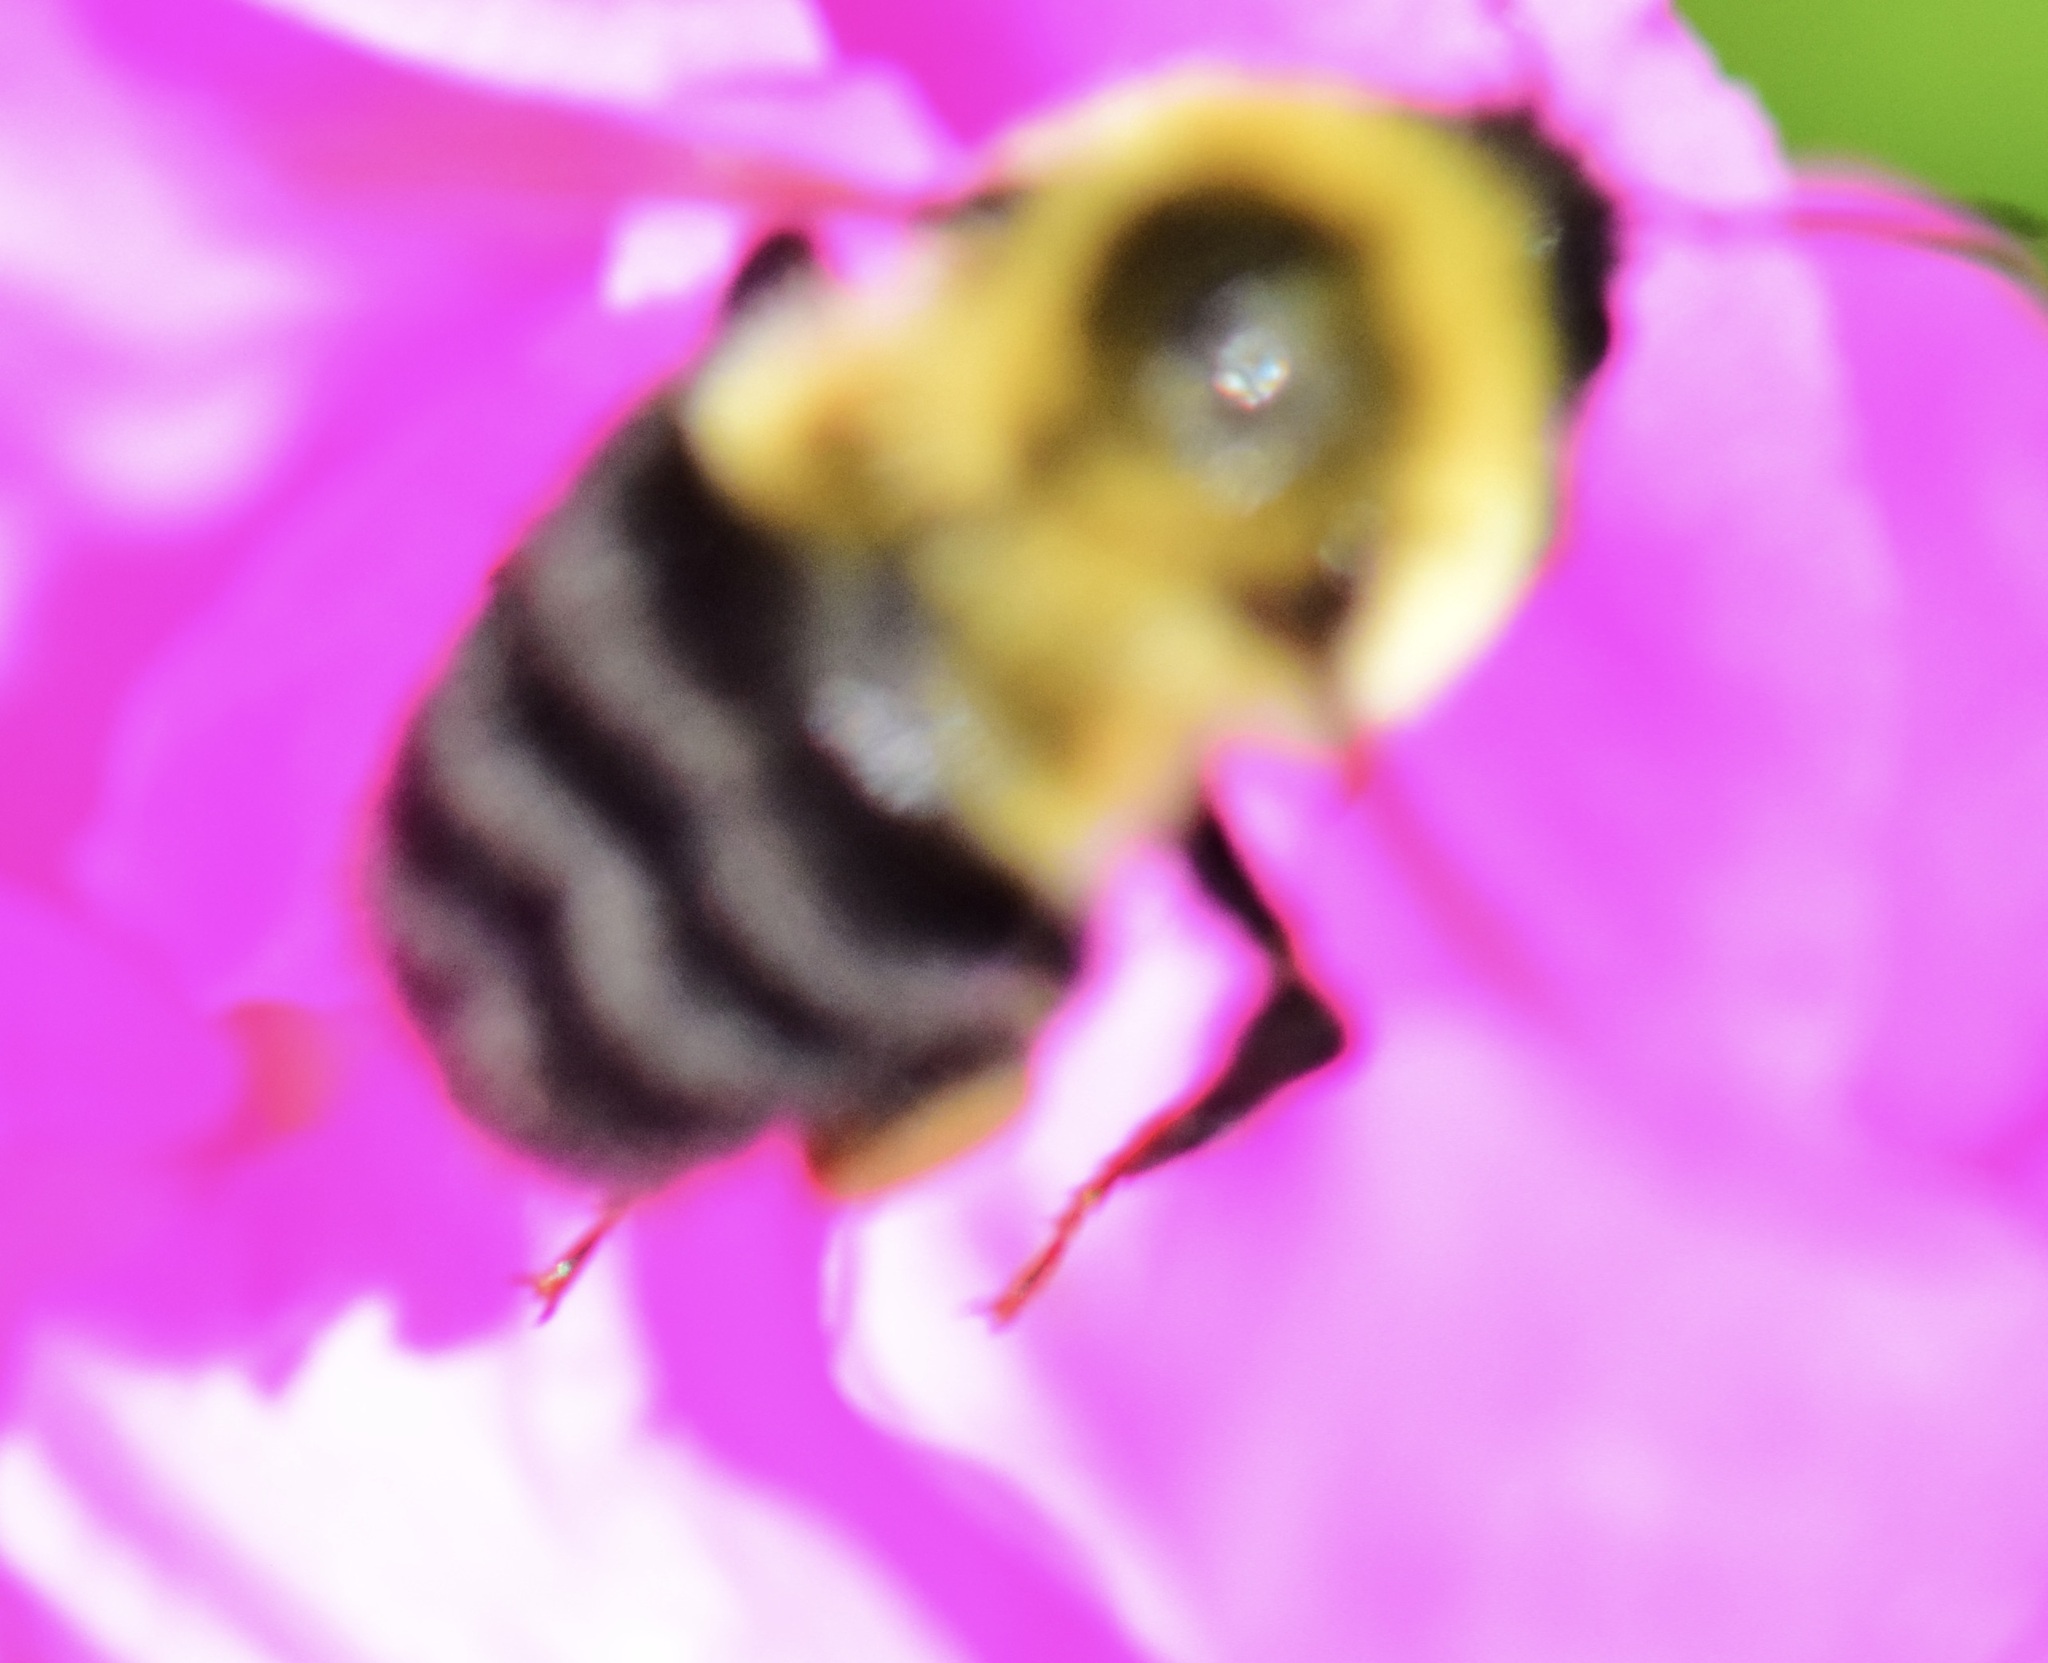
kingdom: Animalia
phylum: Arthropoda
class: Insecta
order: Hymenoptera
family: Apidae
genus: Bombus
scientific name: Bombus impatiens
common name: Common eastern bumble bee
